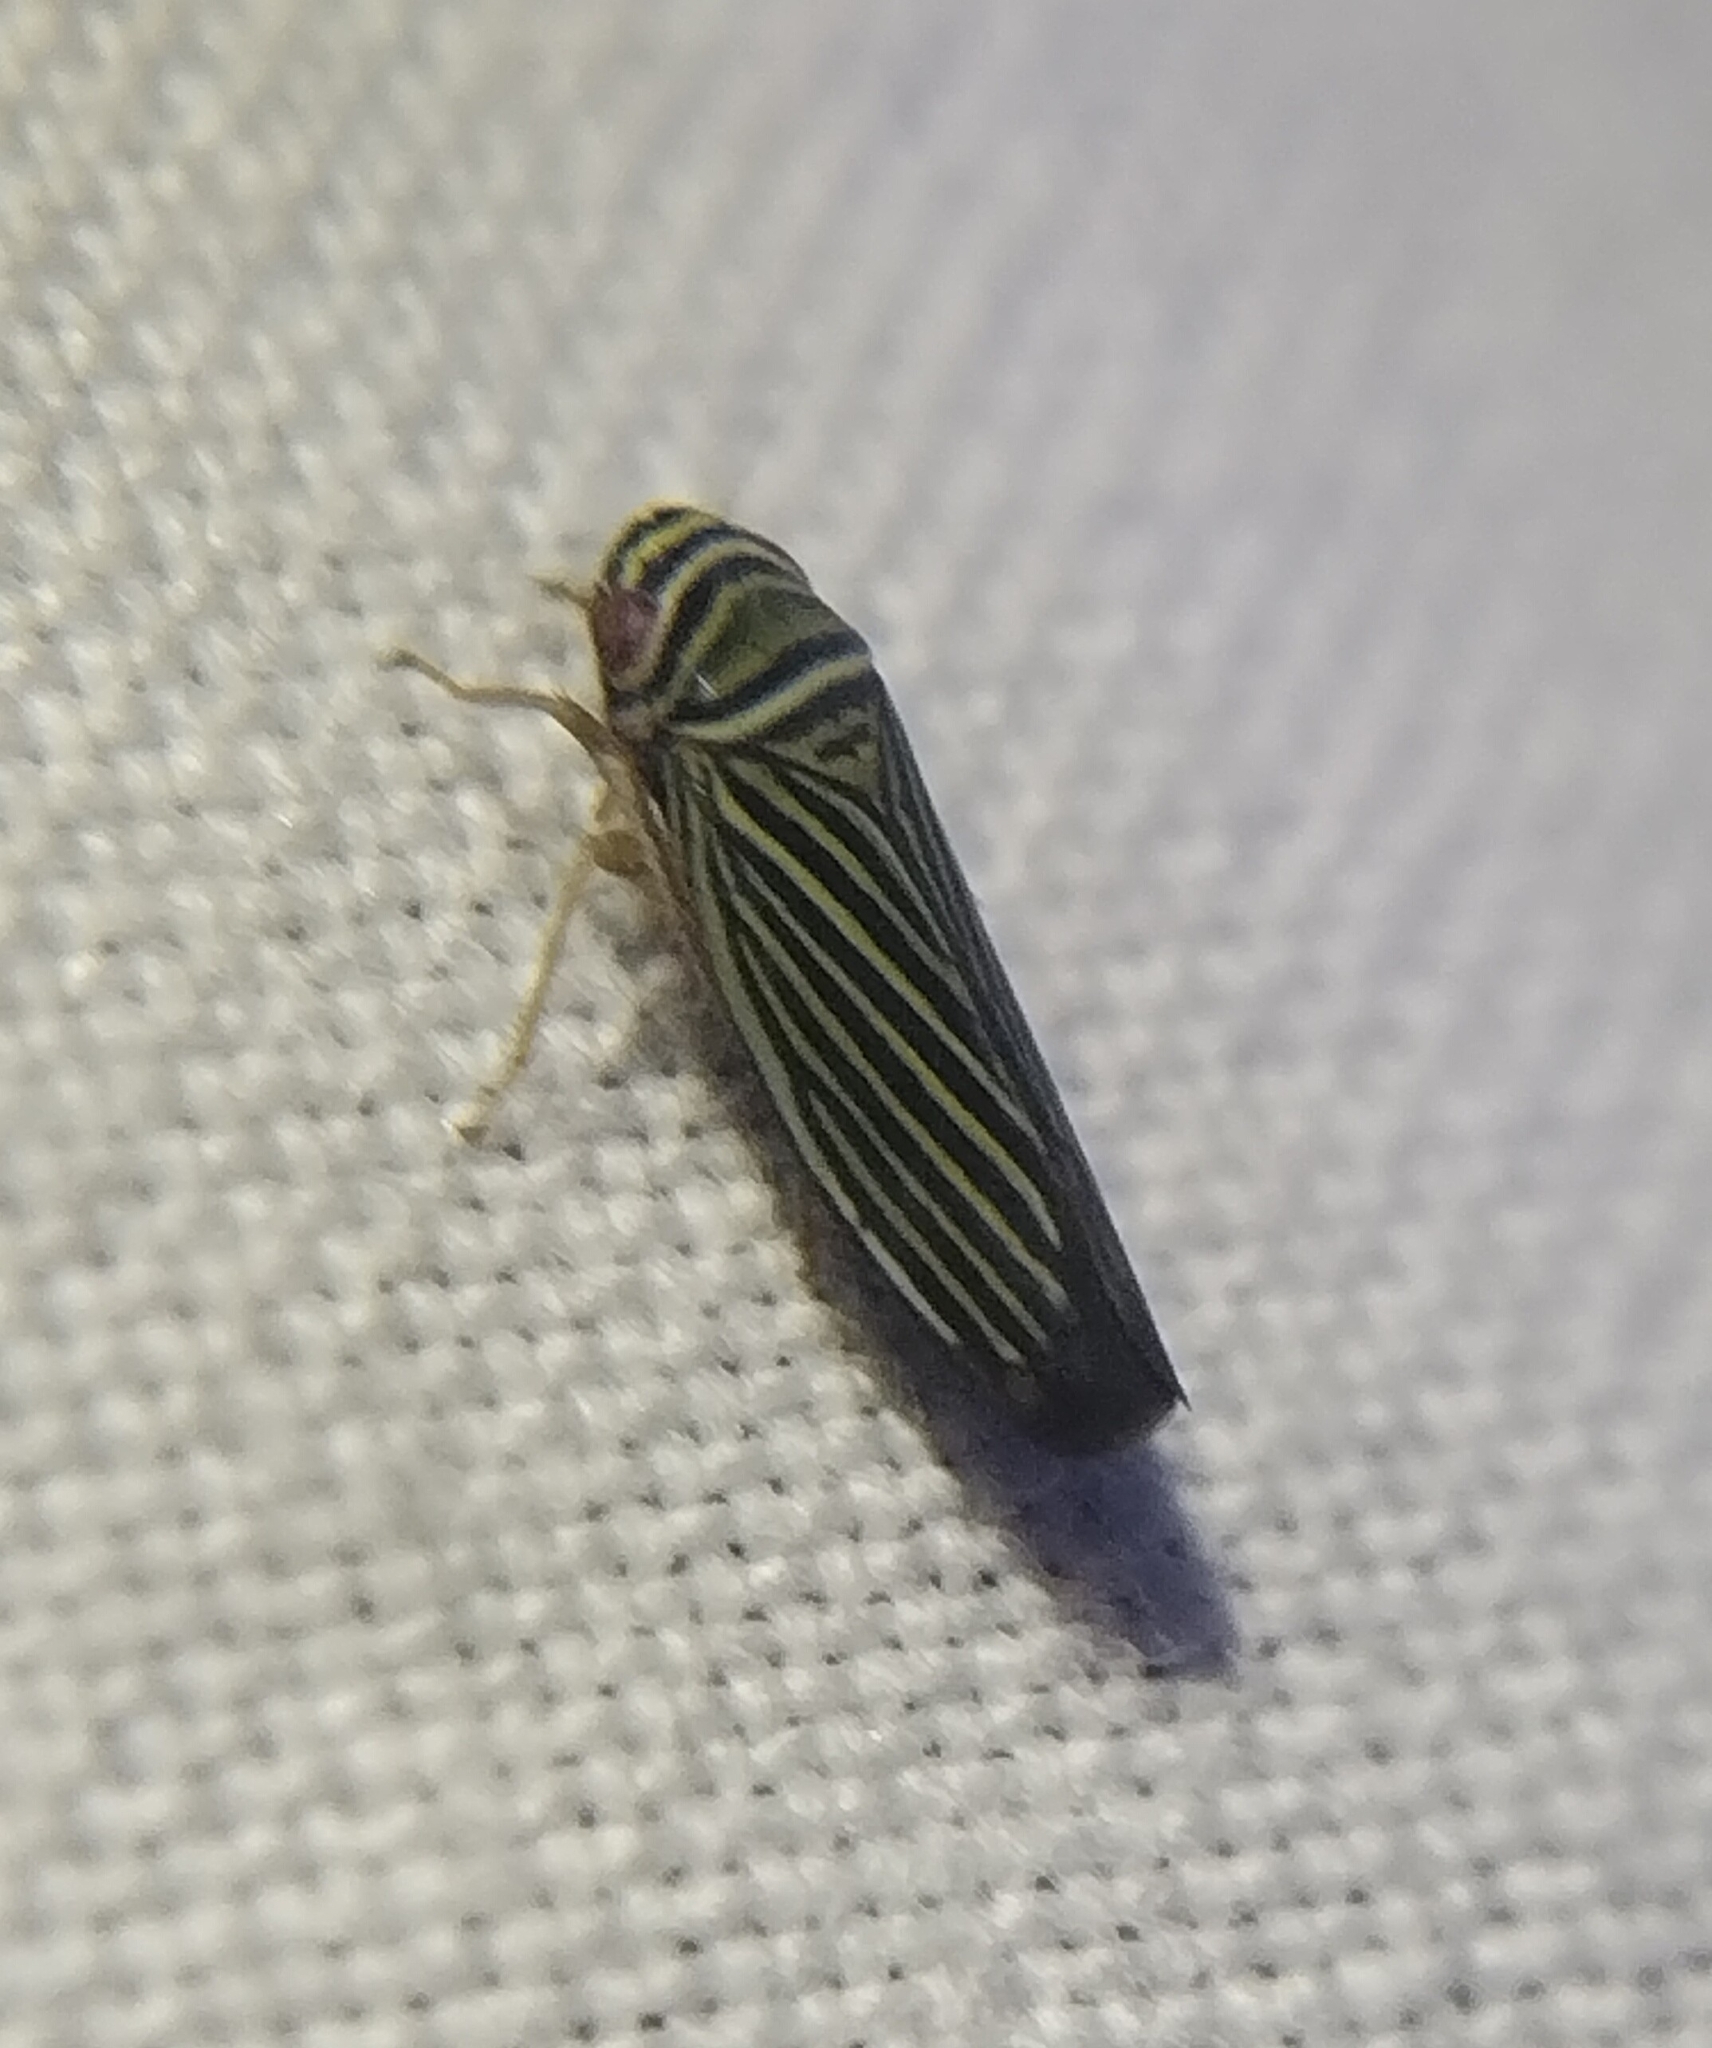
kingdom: Animalia
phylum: Arthropoda
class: Insecta
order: Hemiptera
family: Cicadellidae
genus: Tylozygus
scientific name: Tylozygus bifidus
